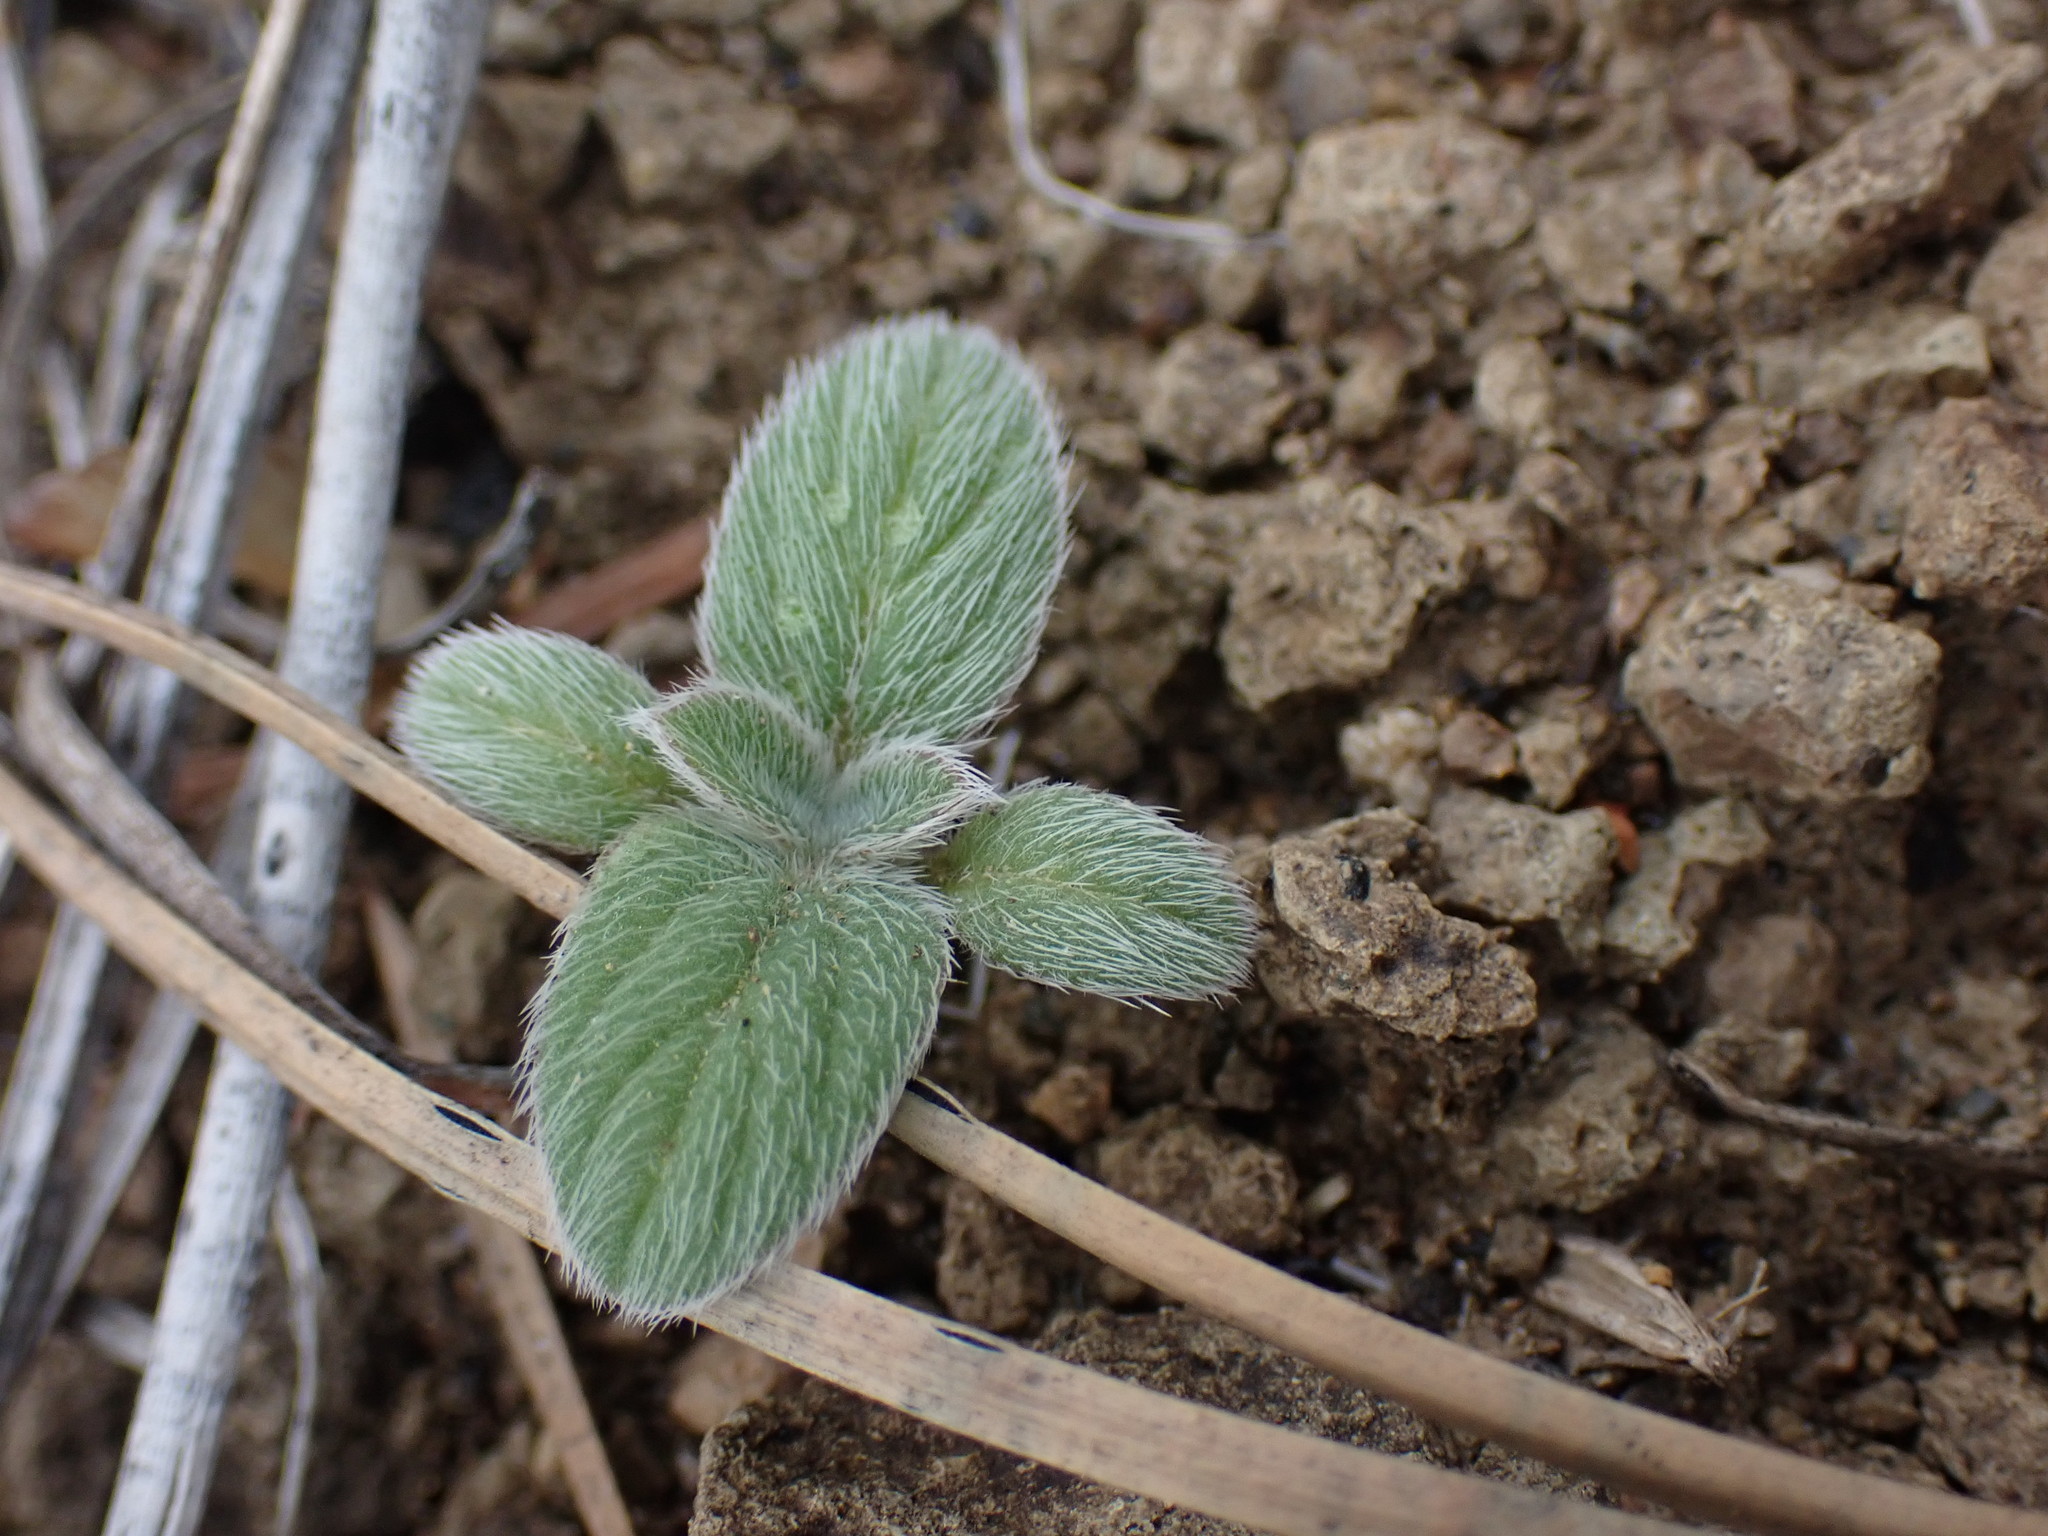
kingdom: Plantae
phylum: Tracheophyta
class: Magnoliopsida
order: Boraginales
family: Hydrophyllaceae
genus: Phacelia
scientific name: Phacelia hastata
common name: Silver-leaved phacelia
